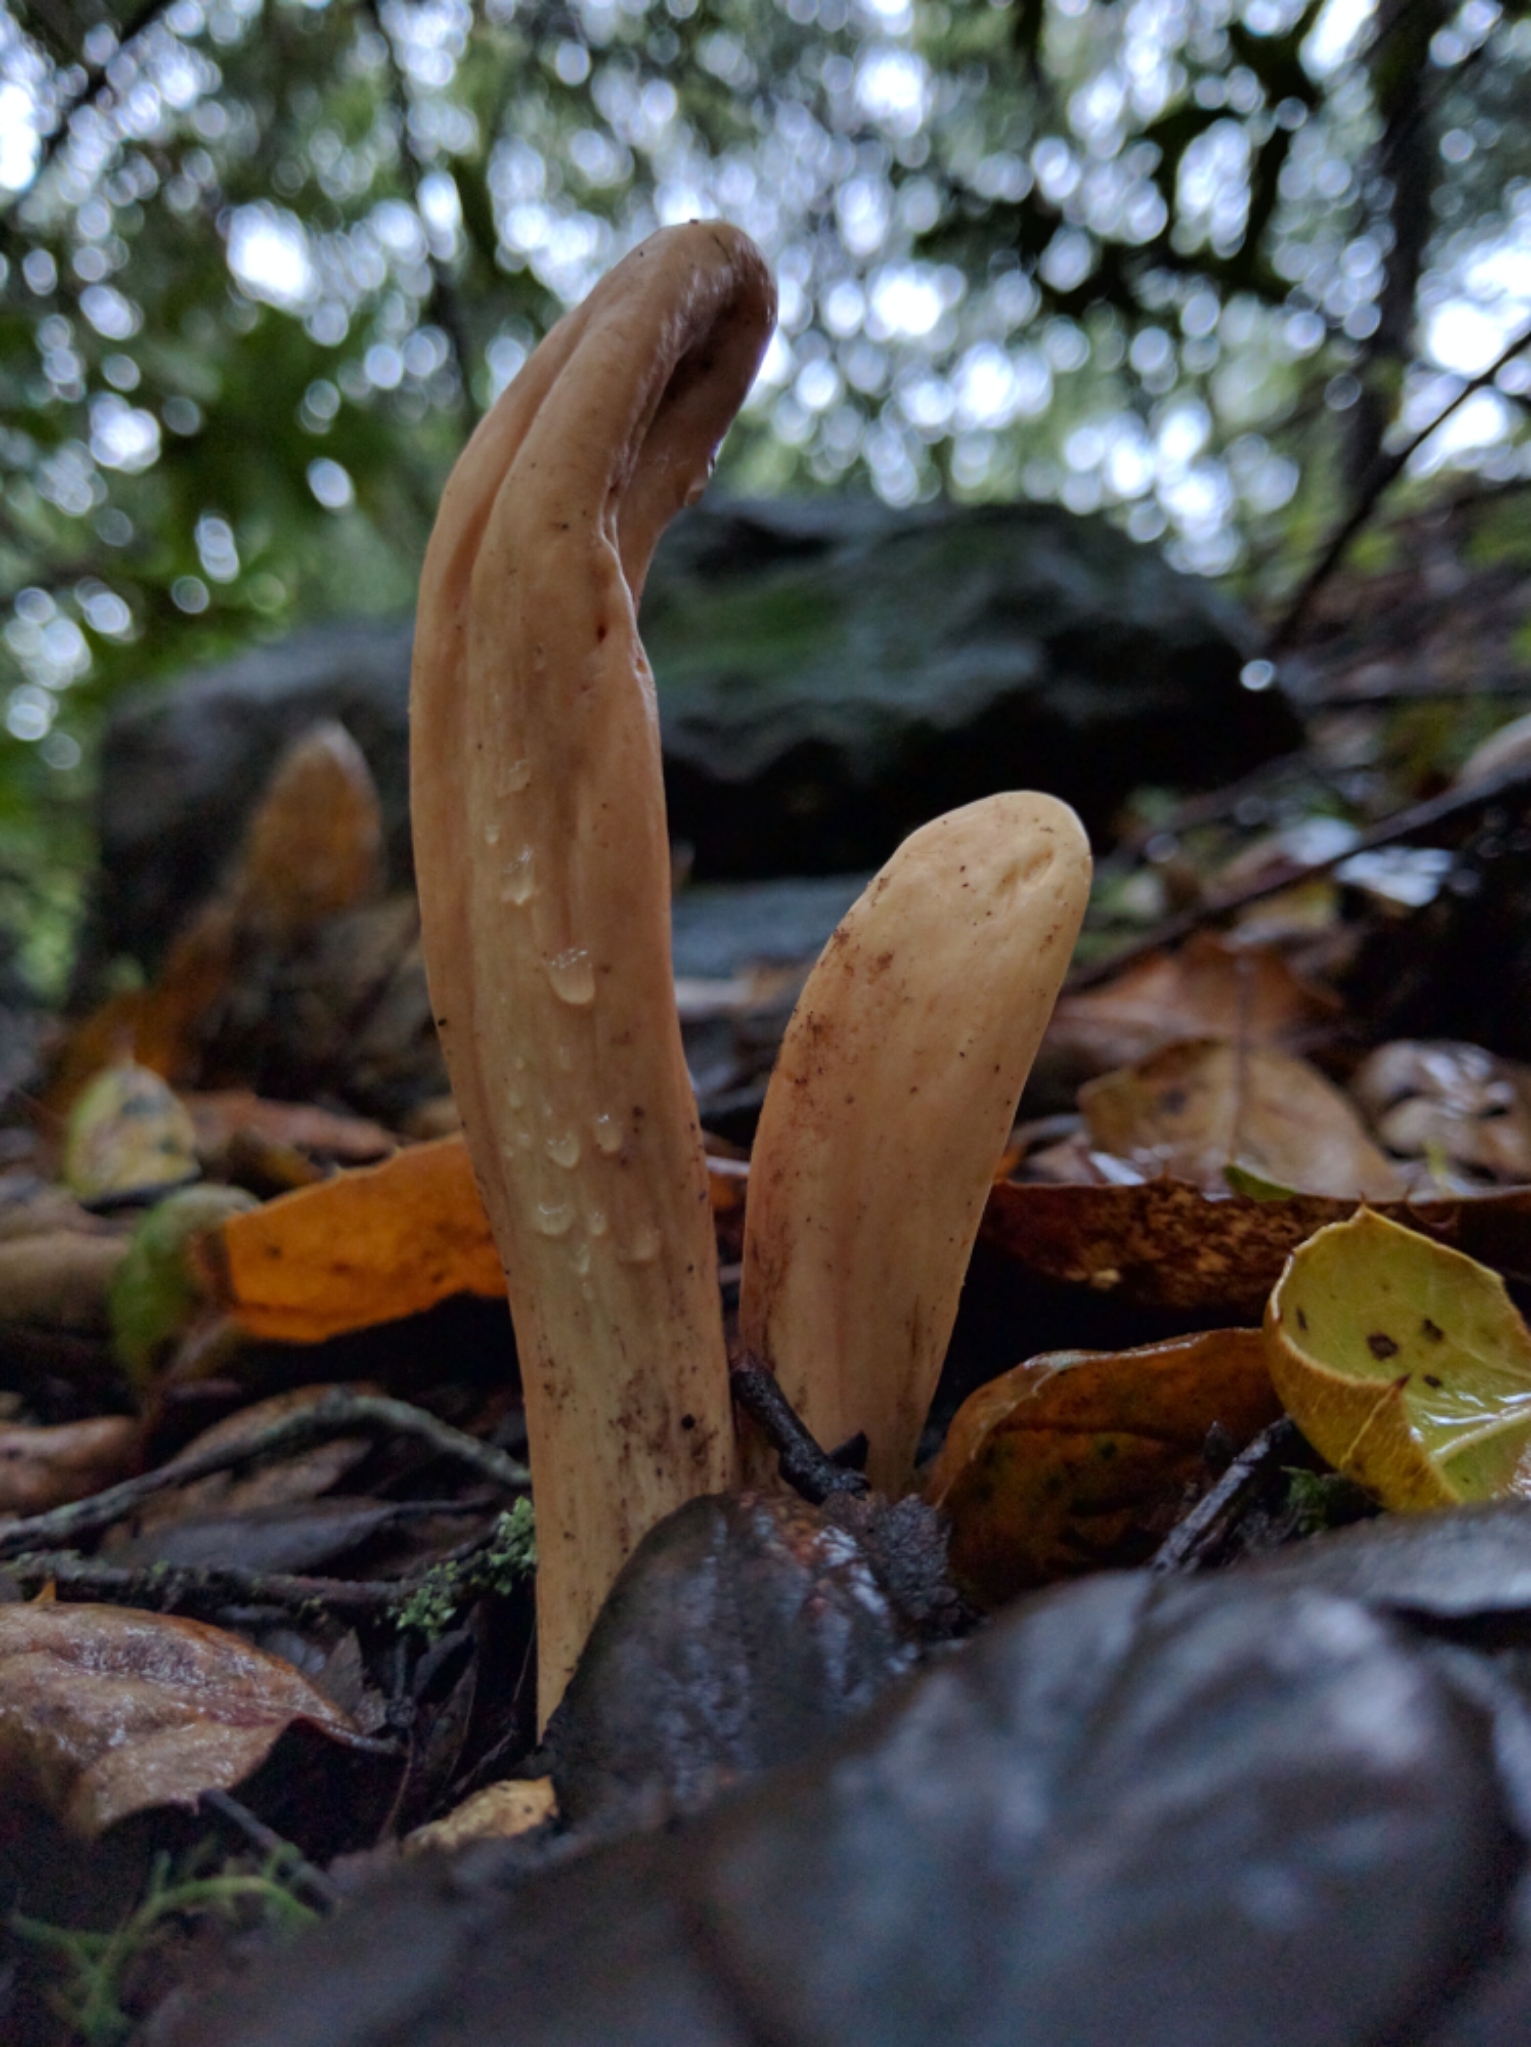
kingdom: Fungi
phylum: Basidiomycota
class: Agaricomycetes
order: Gomphales
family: Clavariadelphaceae
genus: Clavariadelphus
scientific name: Clavariadelphus occidentalis
